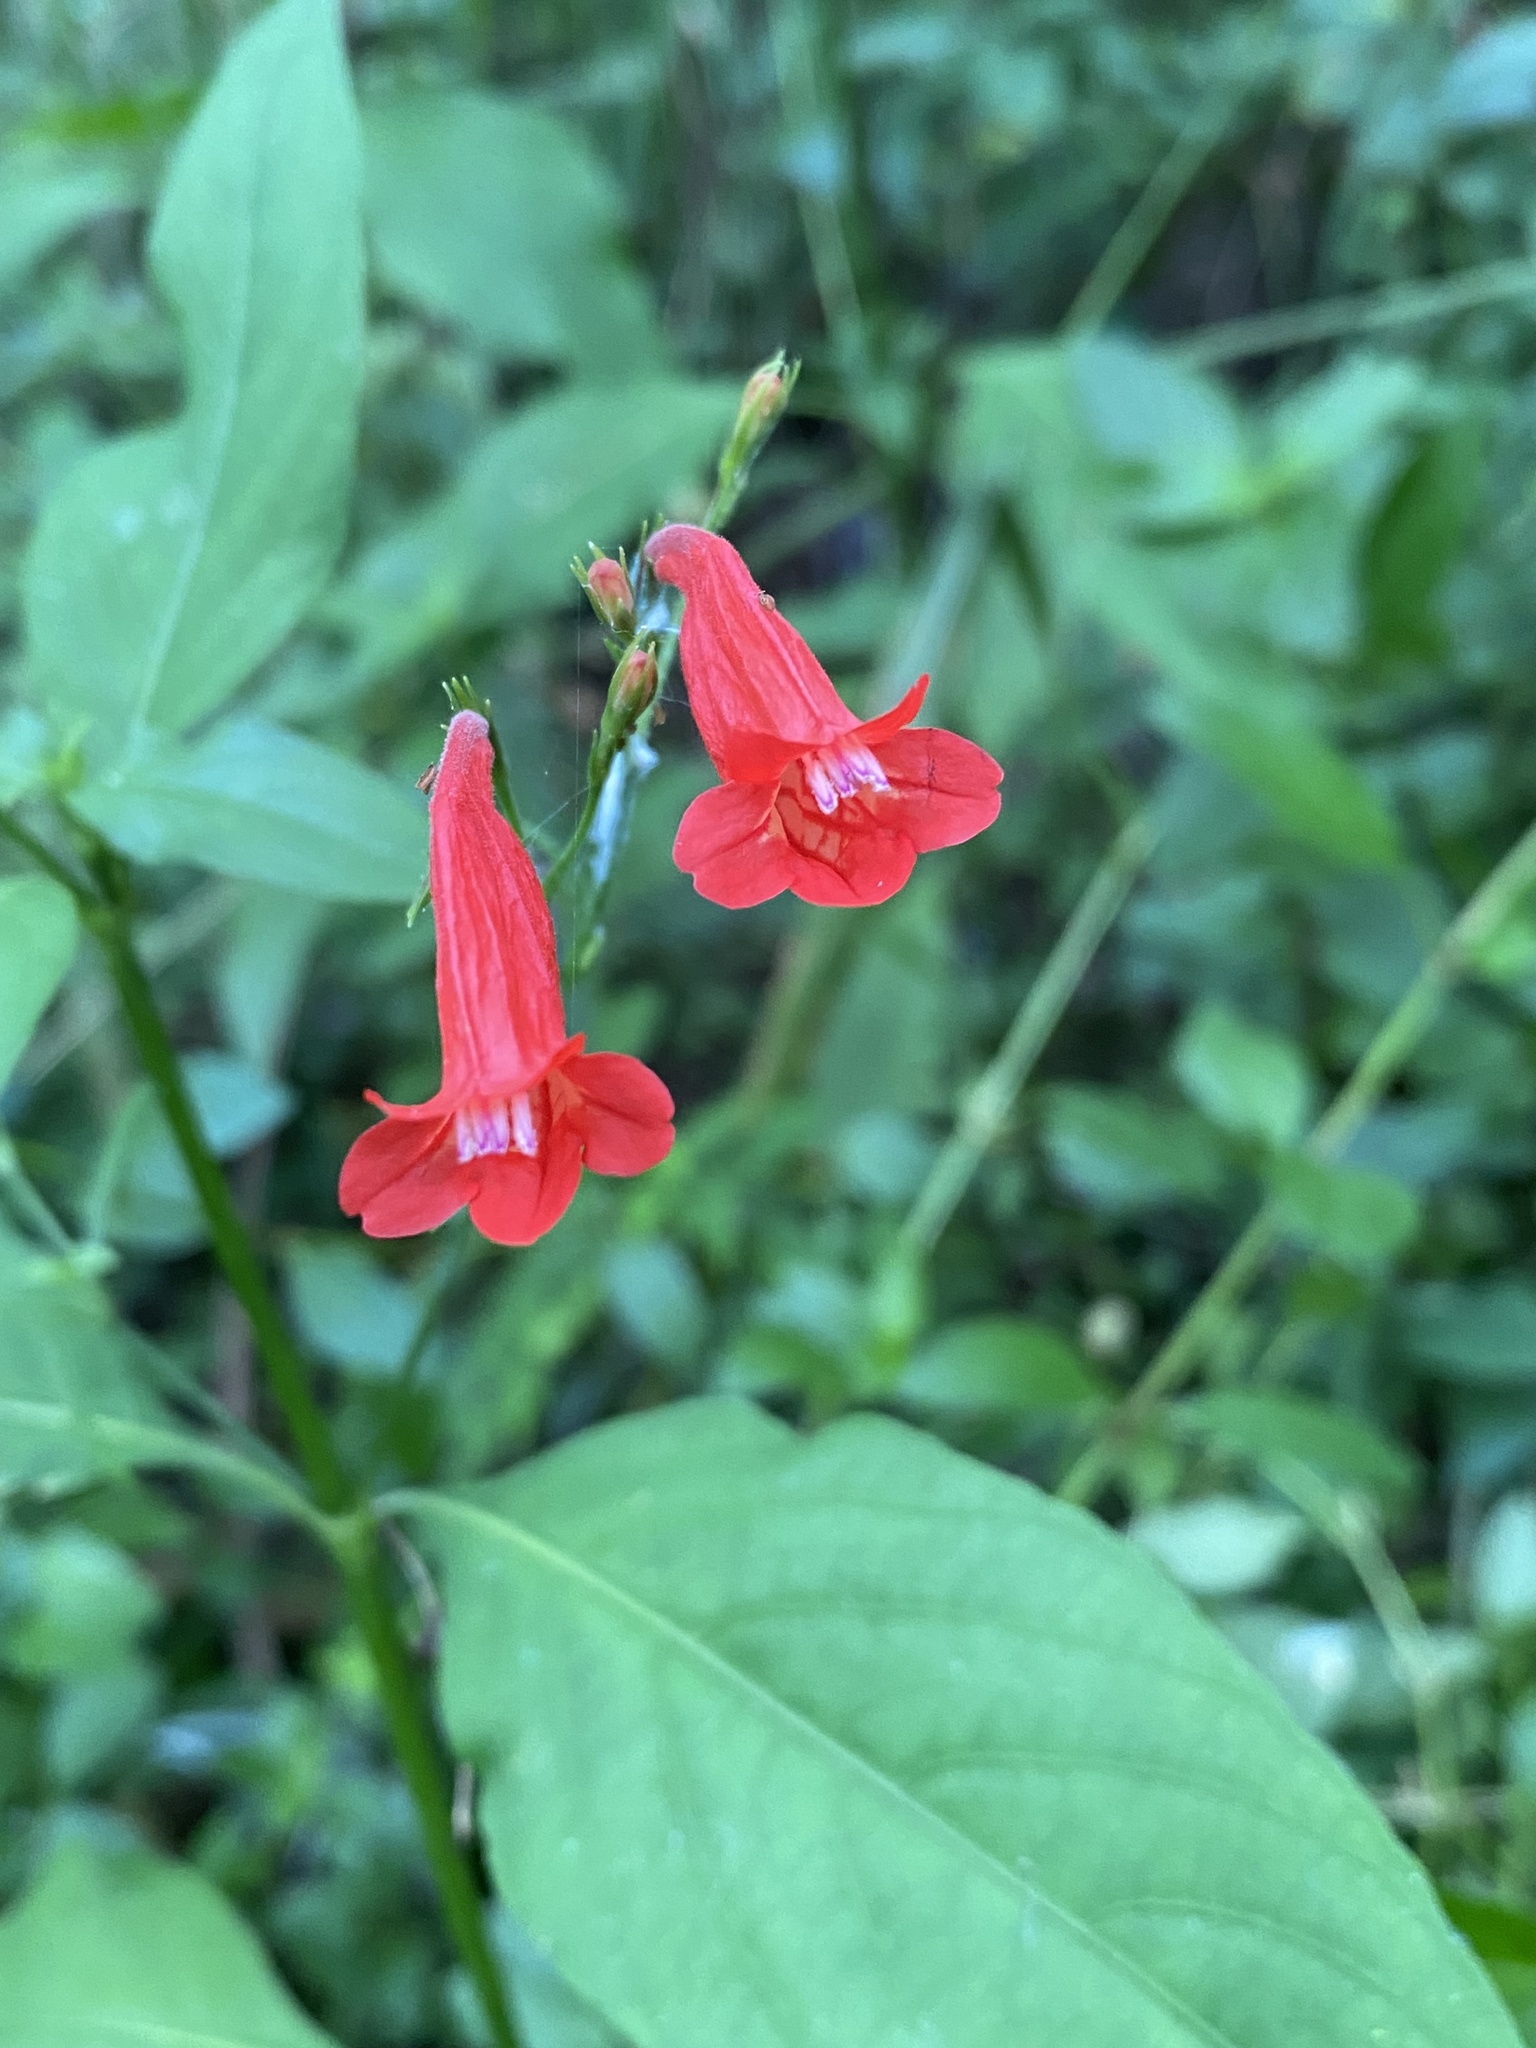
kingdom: Plantae
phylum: Tracheophyta
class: Magnoliopsida
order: Lamiales
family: Acanthaceae
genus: Ruellia
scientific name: Ruellia brevifolia
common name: Tropical wild petunia
